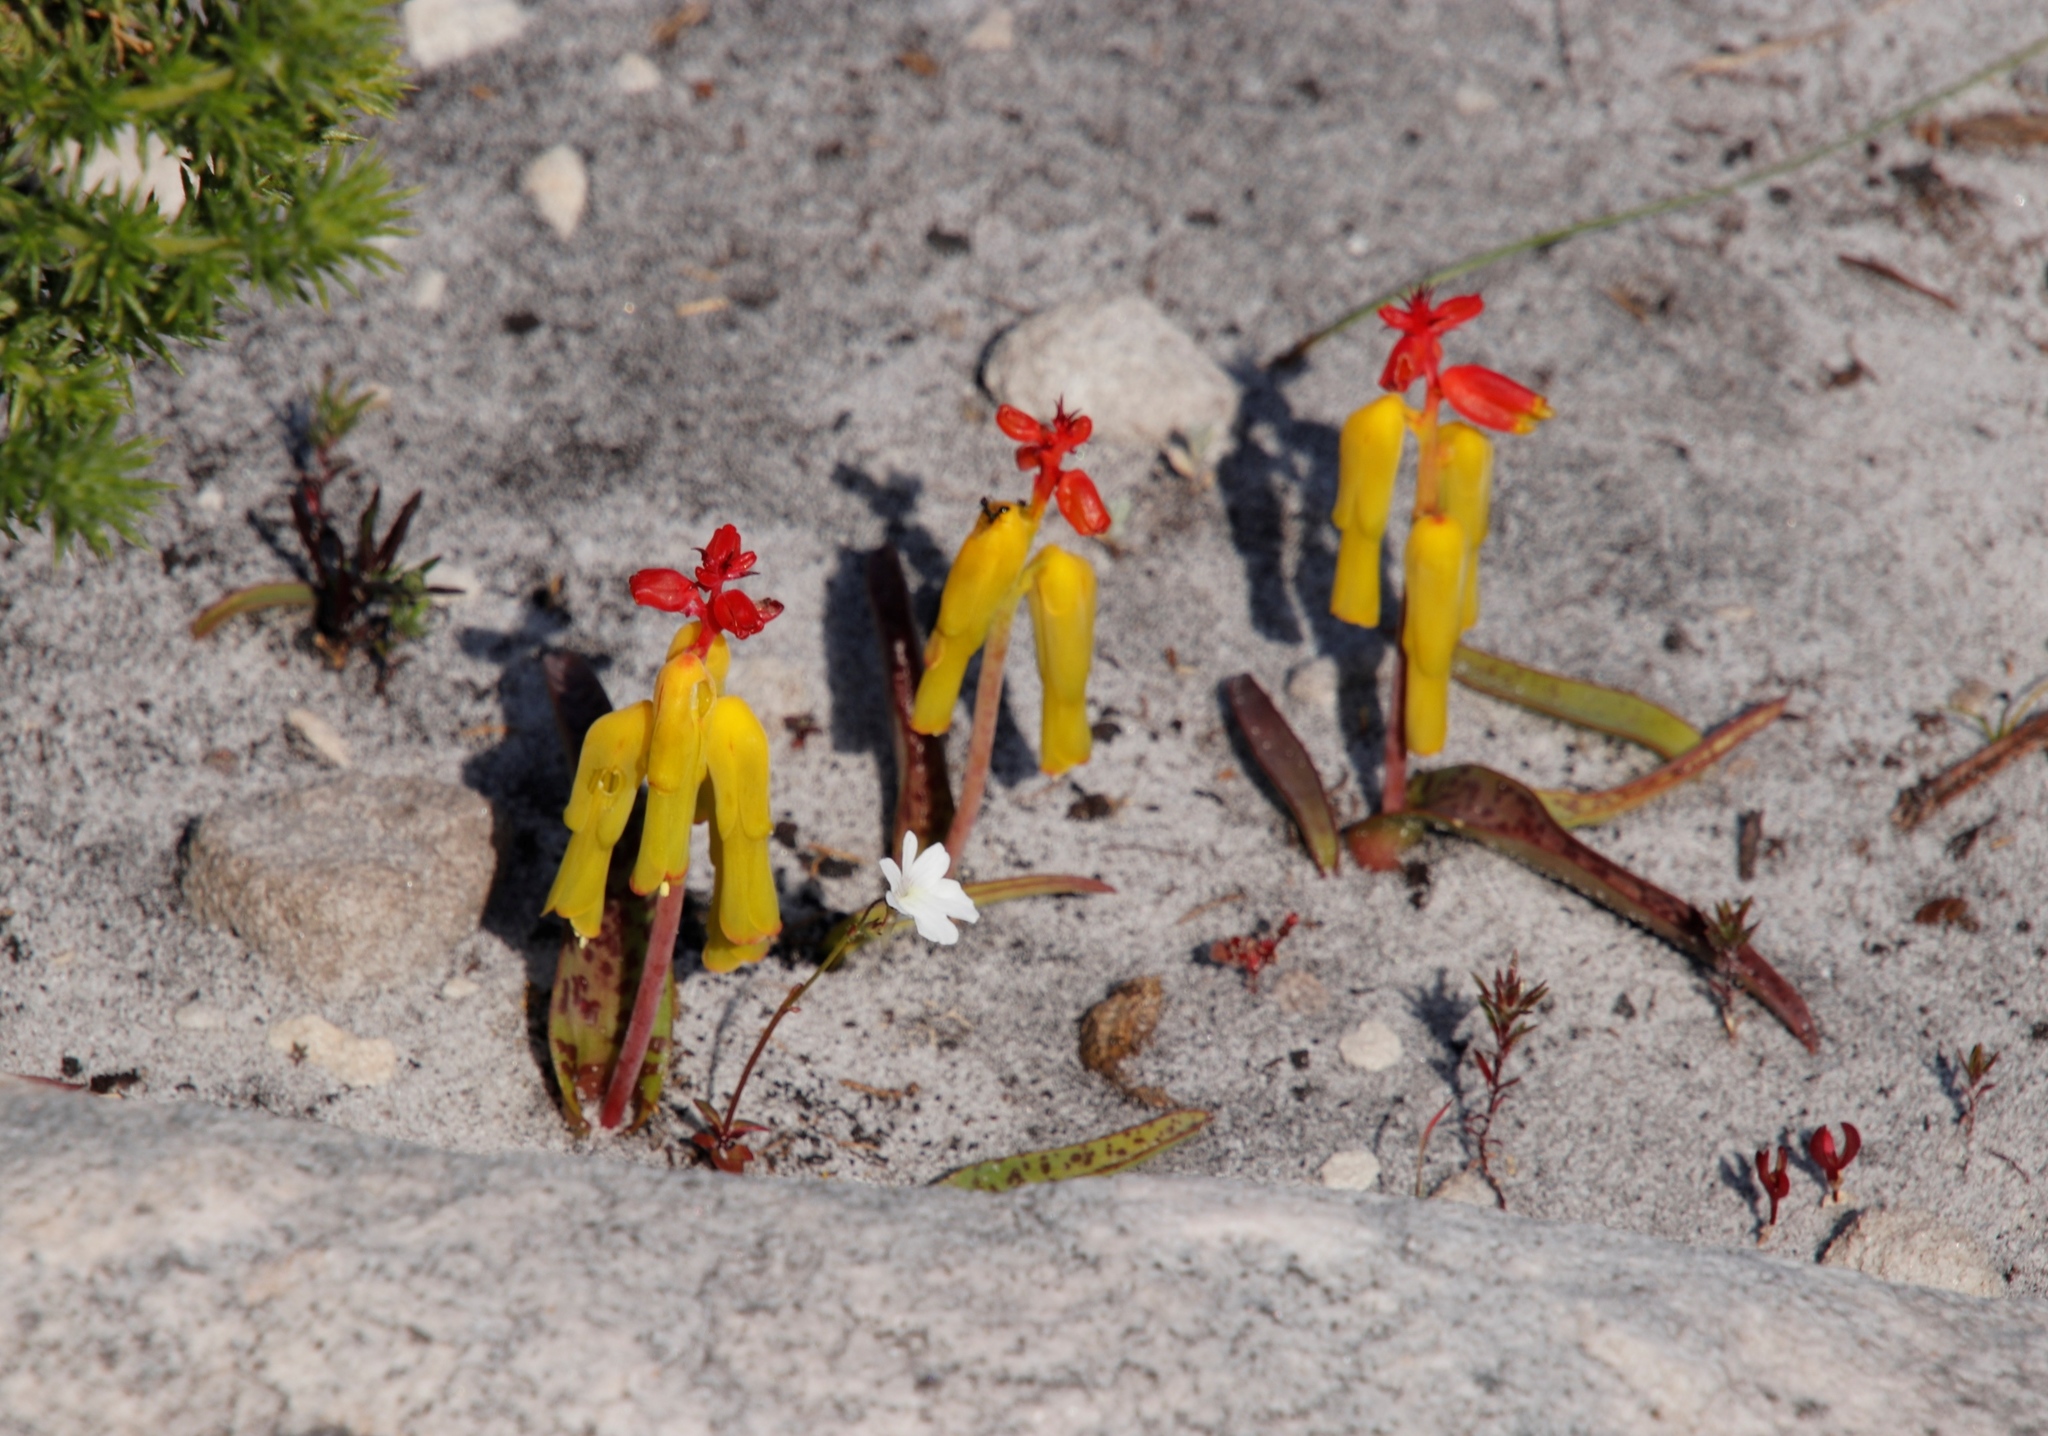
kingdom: Plantae
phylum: Tracheophyta
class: Liliopsida
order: Asparagales
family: Asparagaceae
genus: Lachenalia
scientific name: Lachenalia luteola
